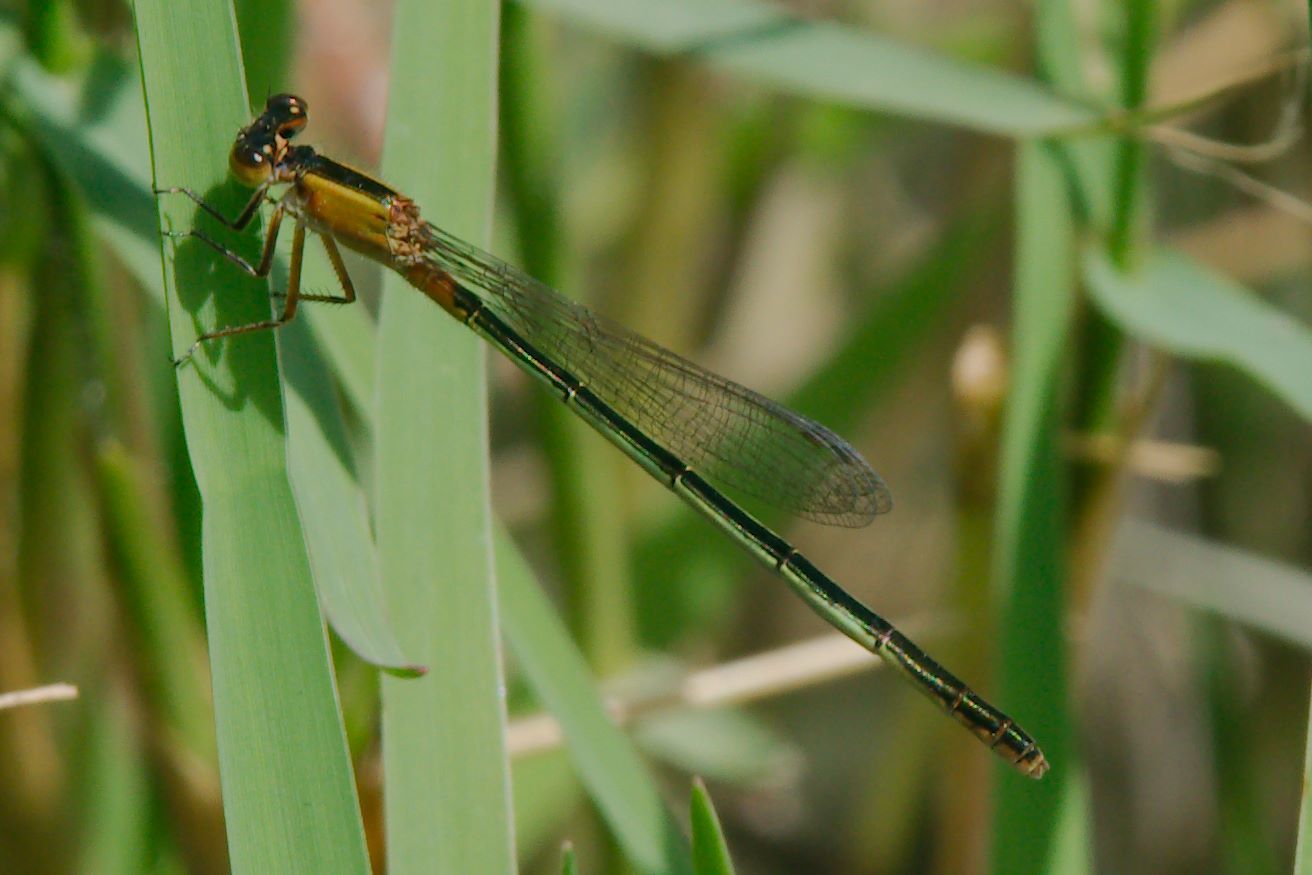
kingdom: Animalia
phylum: Arthropoda
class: Insecta
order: Odonata
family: Coenagrionidae
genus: Ischnura
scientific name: Ischnura ramburii
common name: Rambur's forktail
